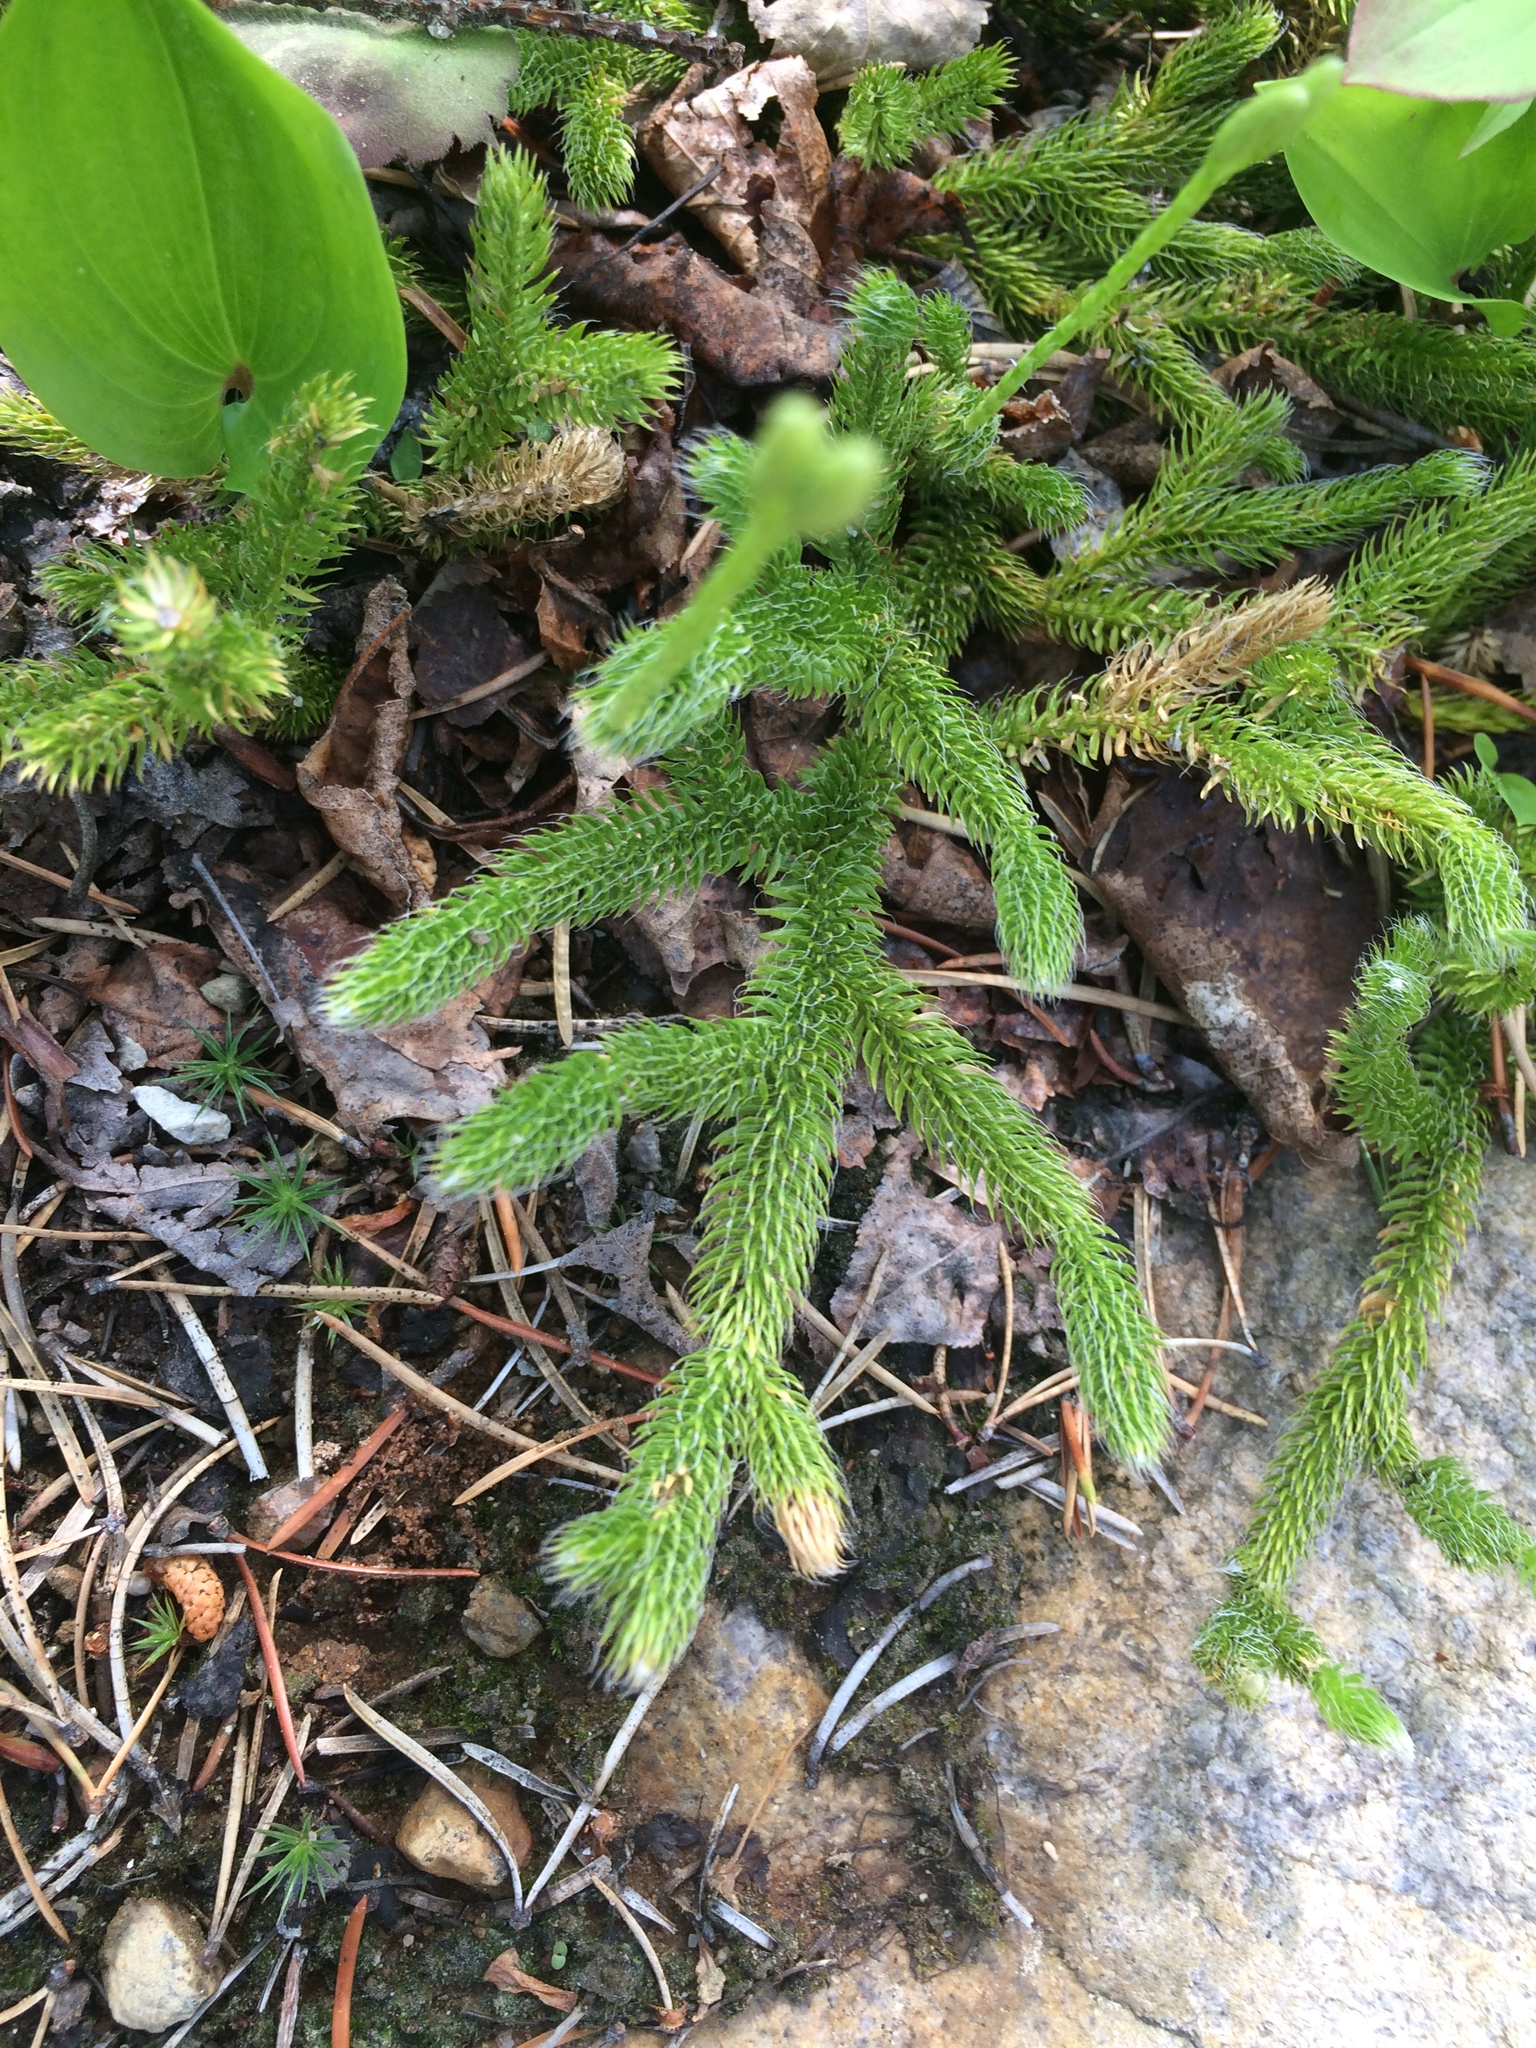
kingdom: Plantae
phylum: Tracheophyta
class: Lycopodiopsida
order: Lycopodiales
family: Lycopodiaceae
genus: Lycopodium
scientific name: Lycopodium clavatum
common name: Stag's-horn clubmoss
